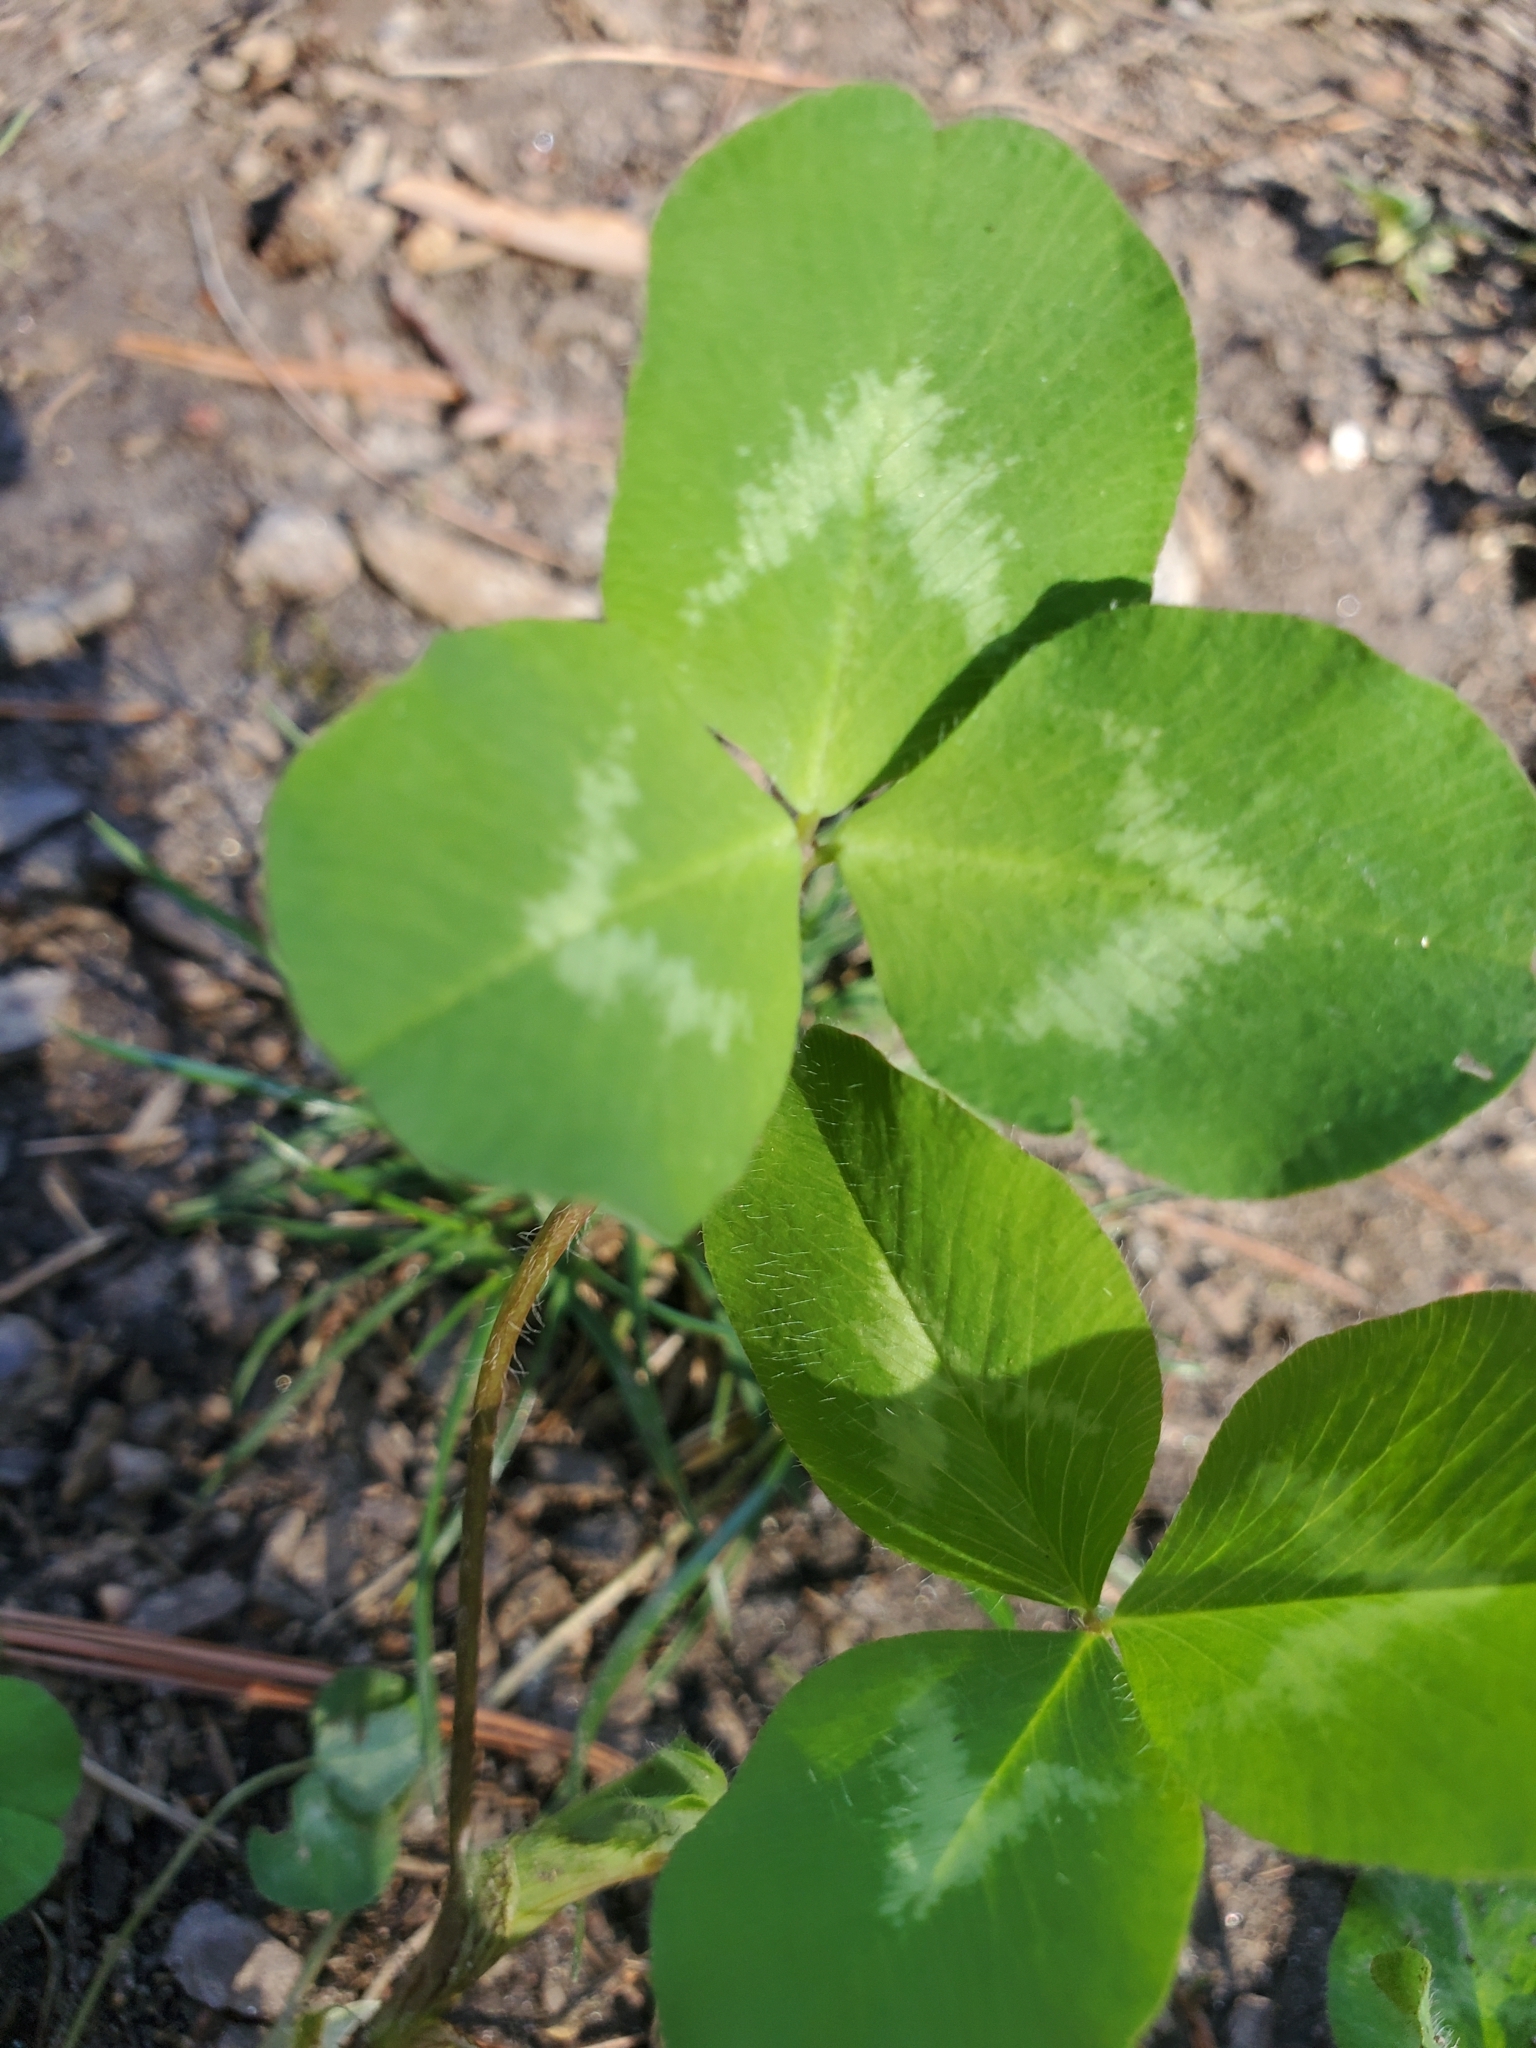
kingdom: Plantae
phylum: Tracheophyta
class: Magnoliopsida
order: Fabales
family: Fabaceae
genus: Trifolium
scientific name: Trifolium pratense
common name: Red clover
